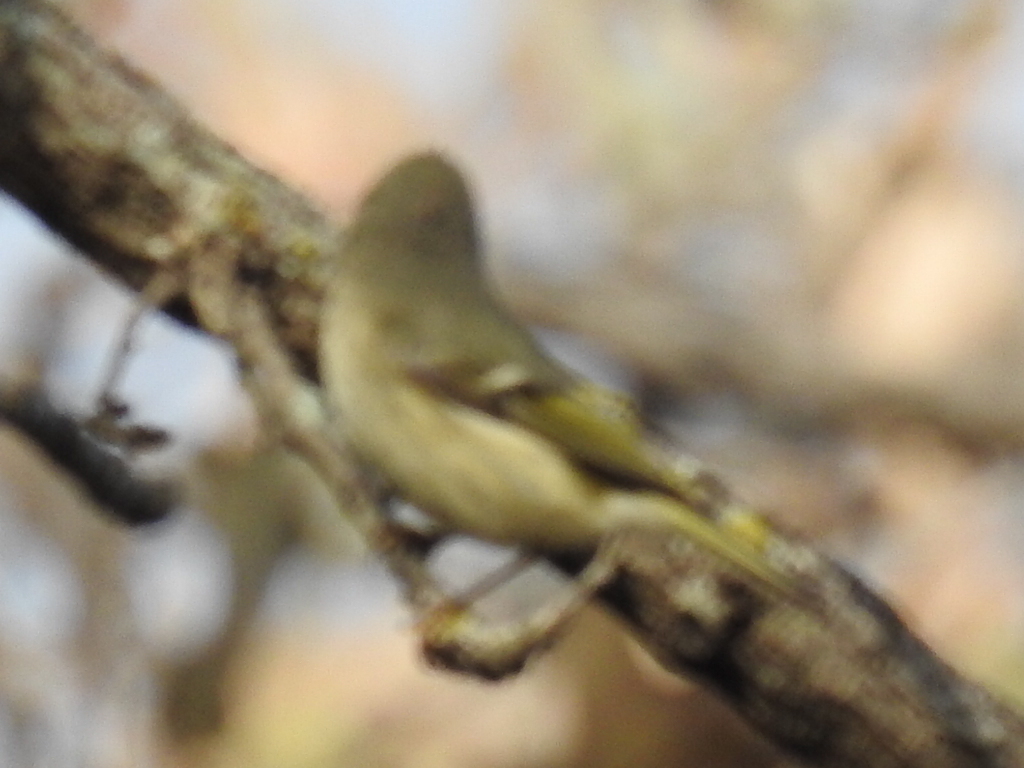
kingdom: Animalia
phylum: Chordata
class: Aves
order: Passeriformes
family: Regulidae
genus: Regulus
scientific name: Regulus calendula
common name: Ruby-crowned kinglet
